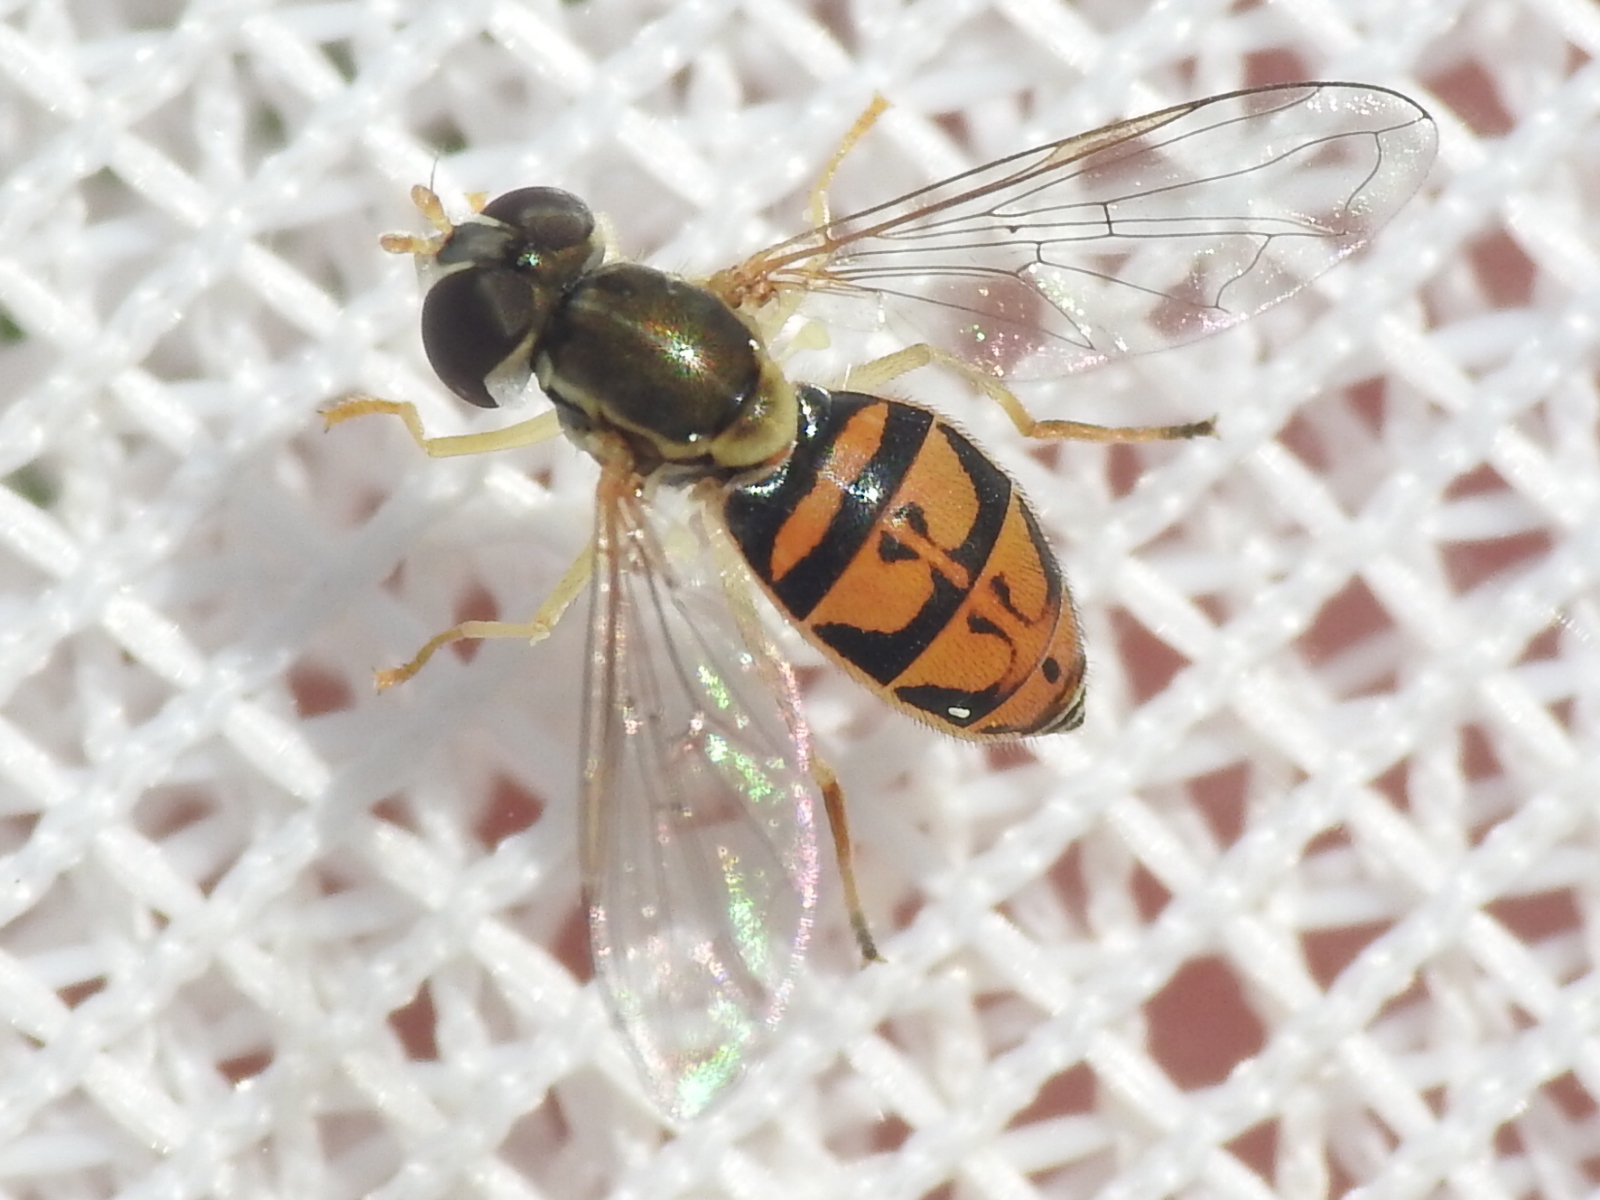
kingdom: Animalia
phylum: Arthropoda
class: Insecta
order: Diptera
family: Syrphidae
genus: Toxomerus
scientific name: Toxomerus marginatus
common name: Syrphid fly
